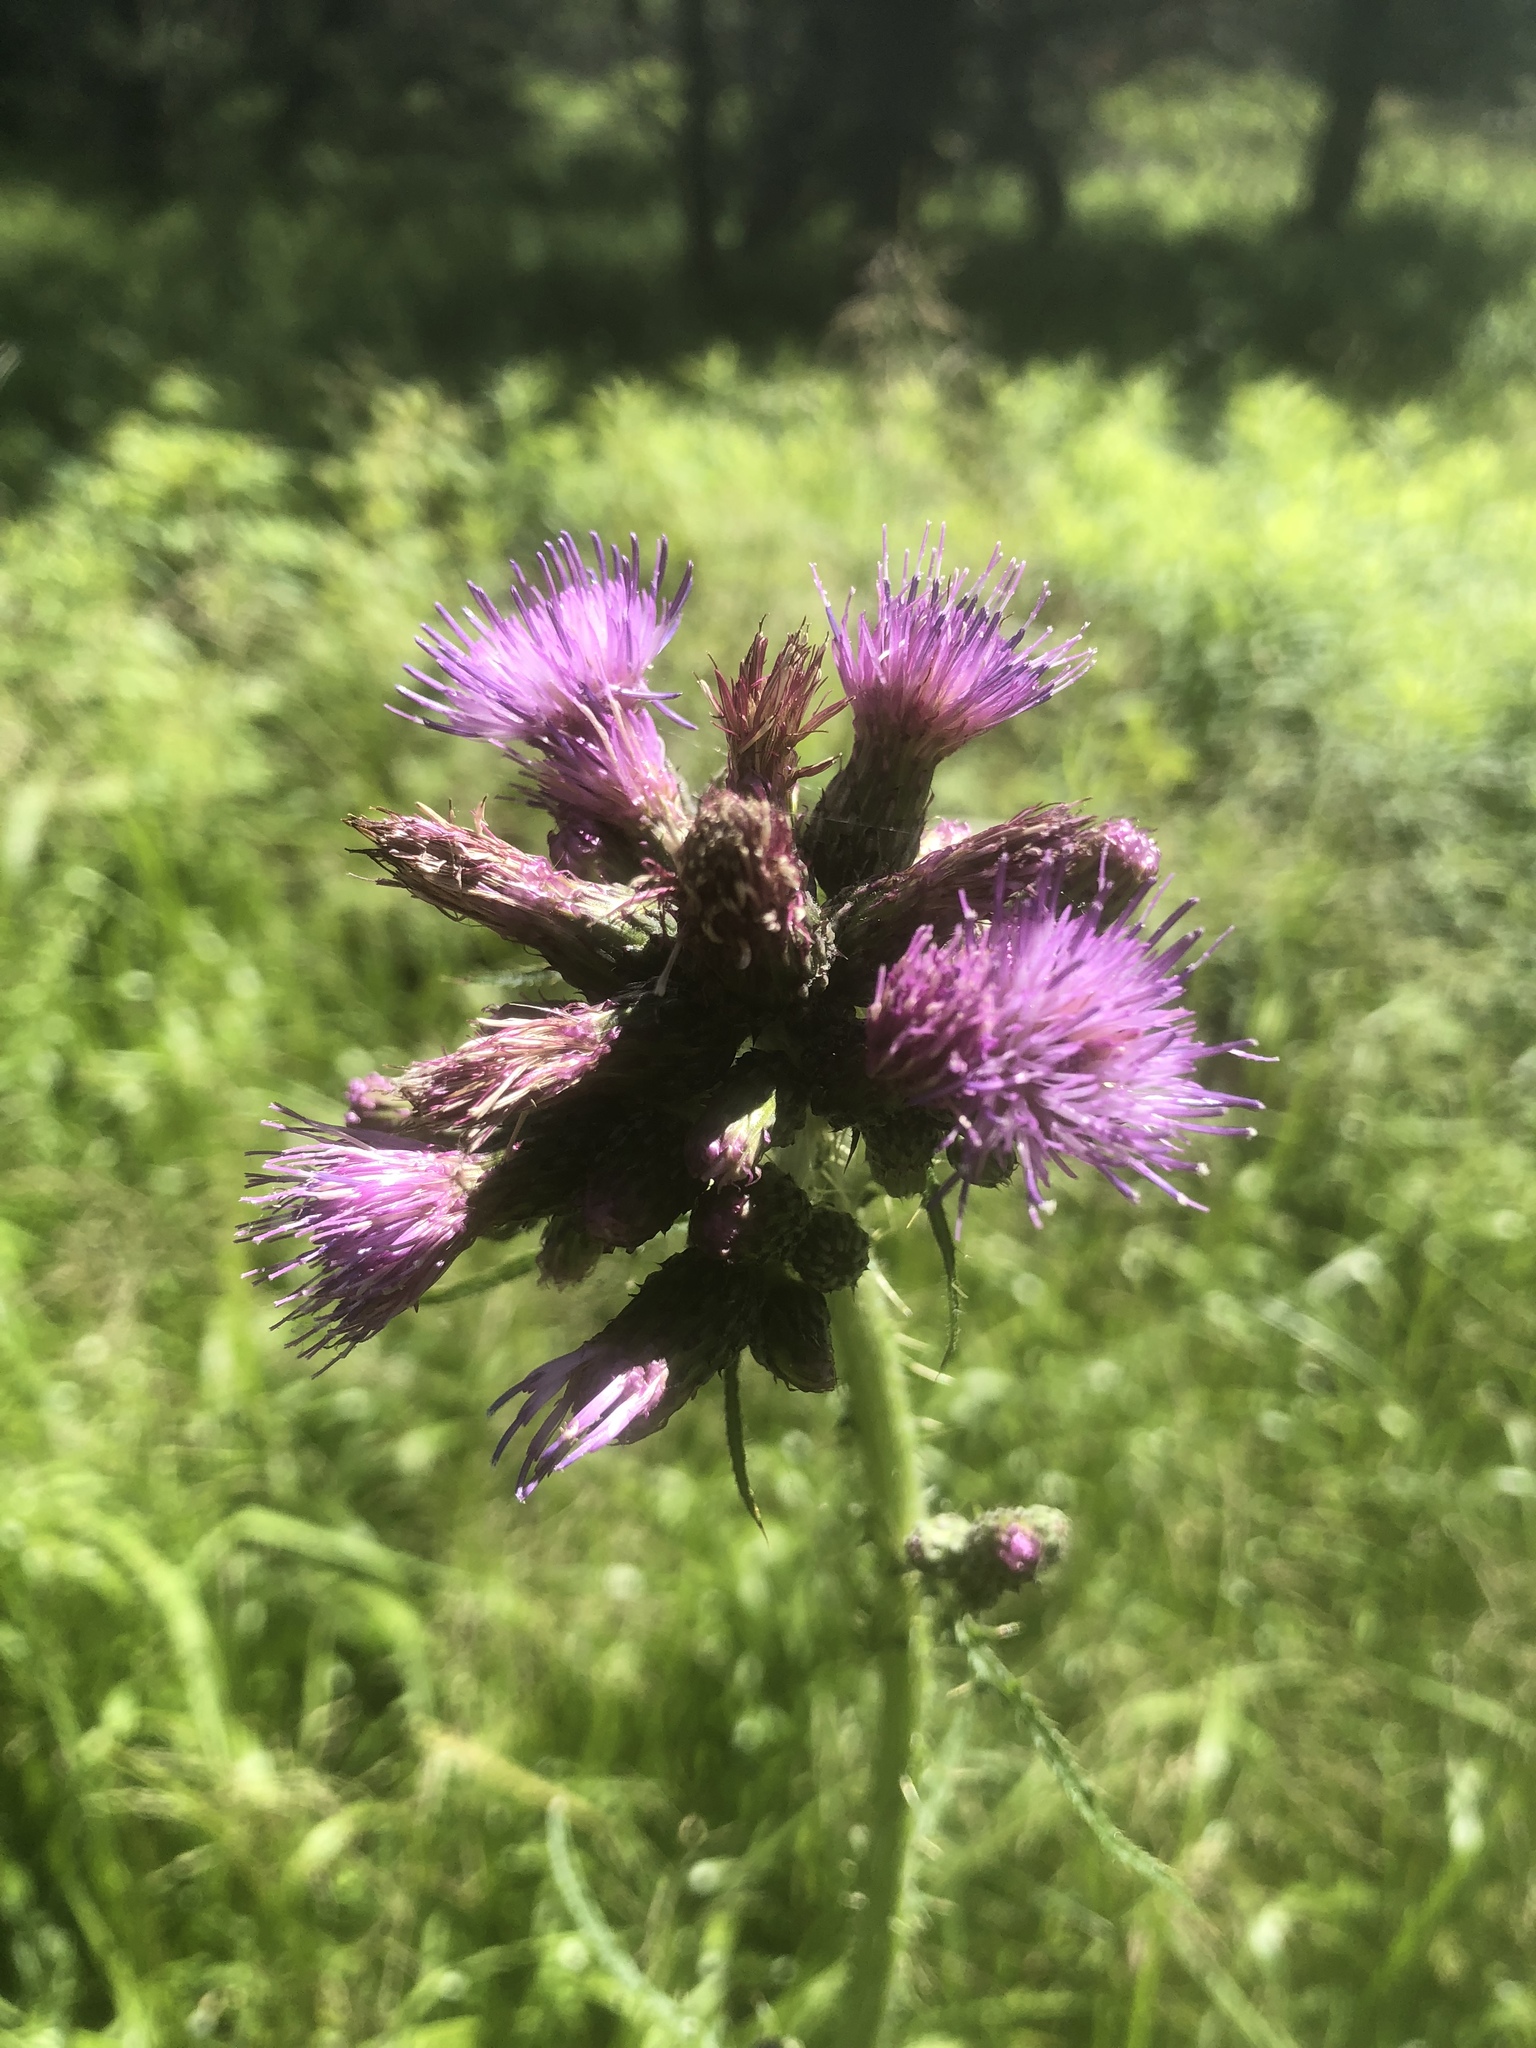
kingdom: Plantae
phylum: Tracheophyta
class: Magnoliopsida
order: Asterales
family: Asteraceae
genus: Cirsium
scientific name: Cirsium palustre
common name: Marsh thistle
